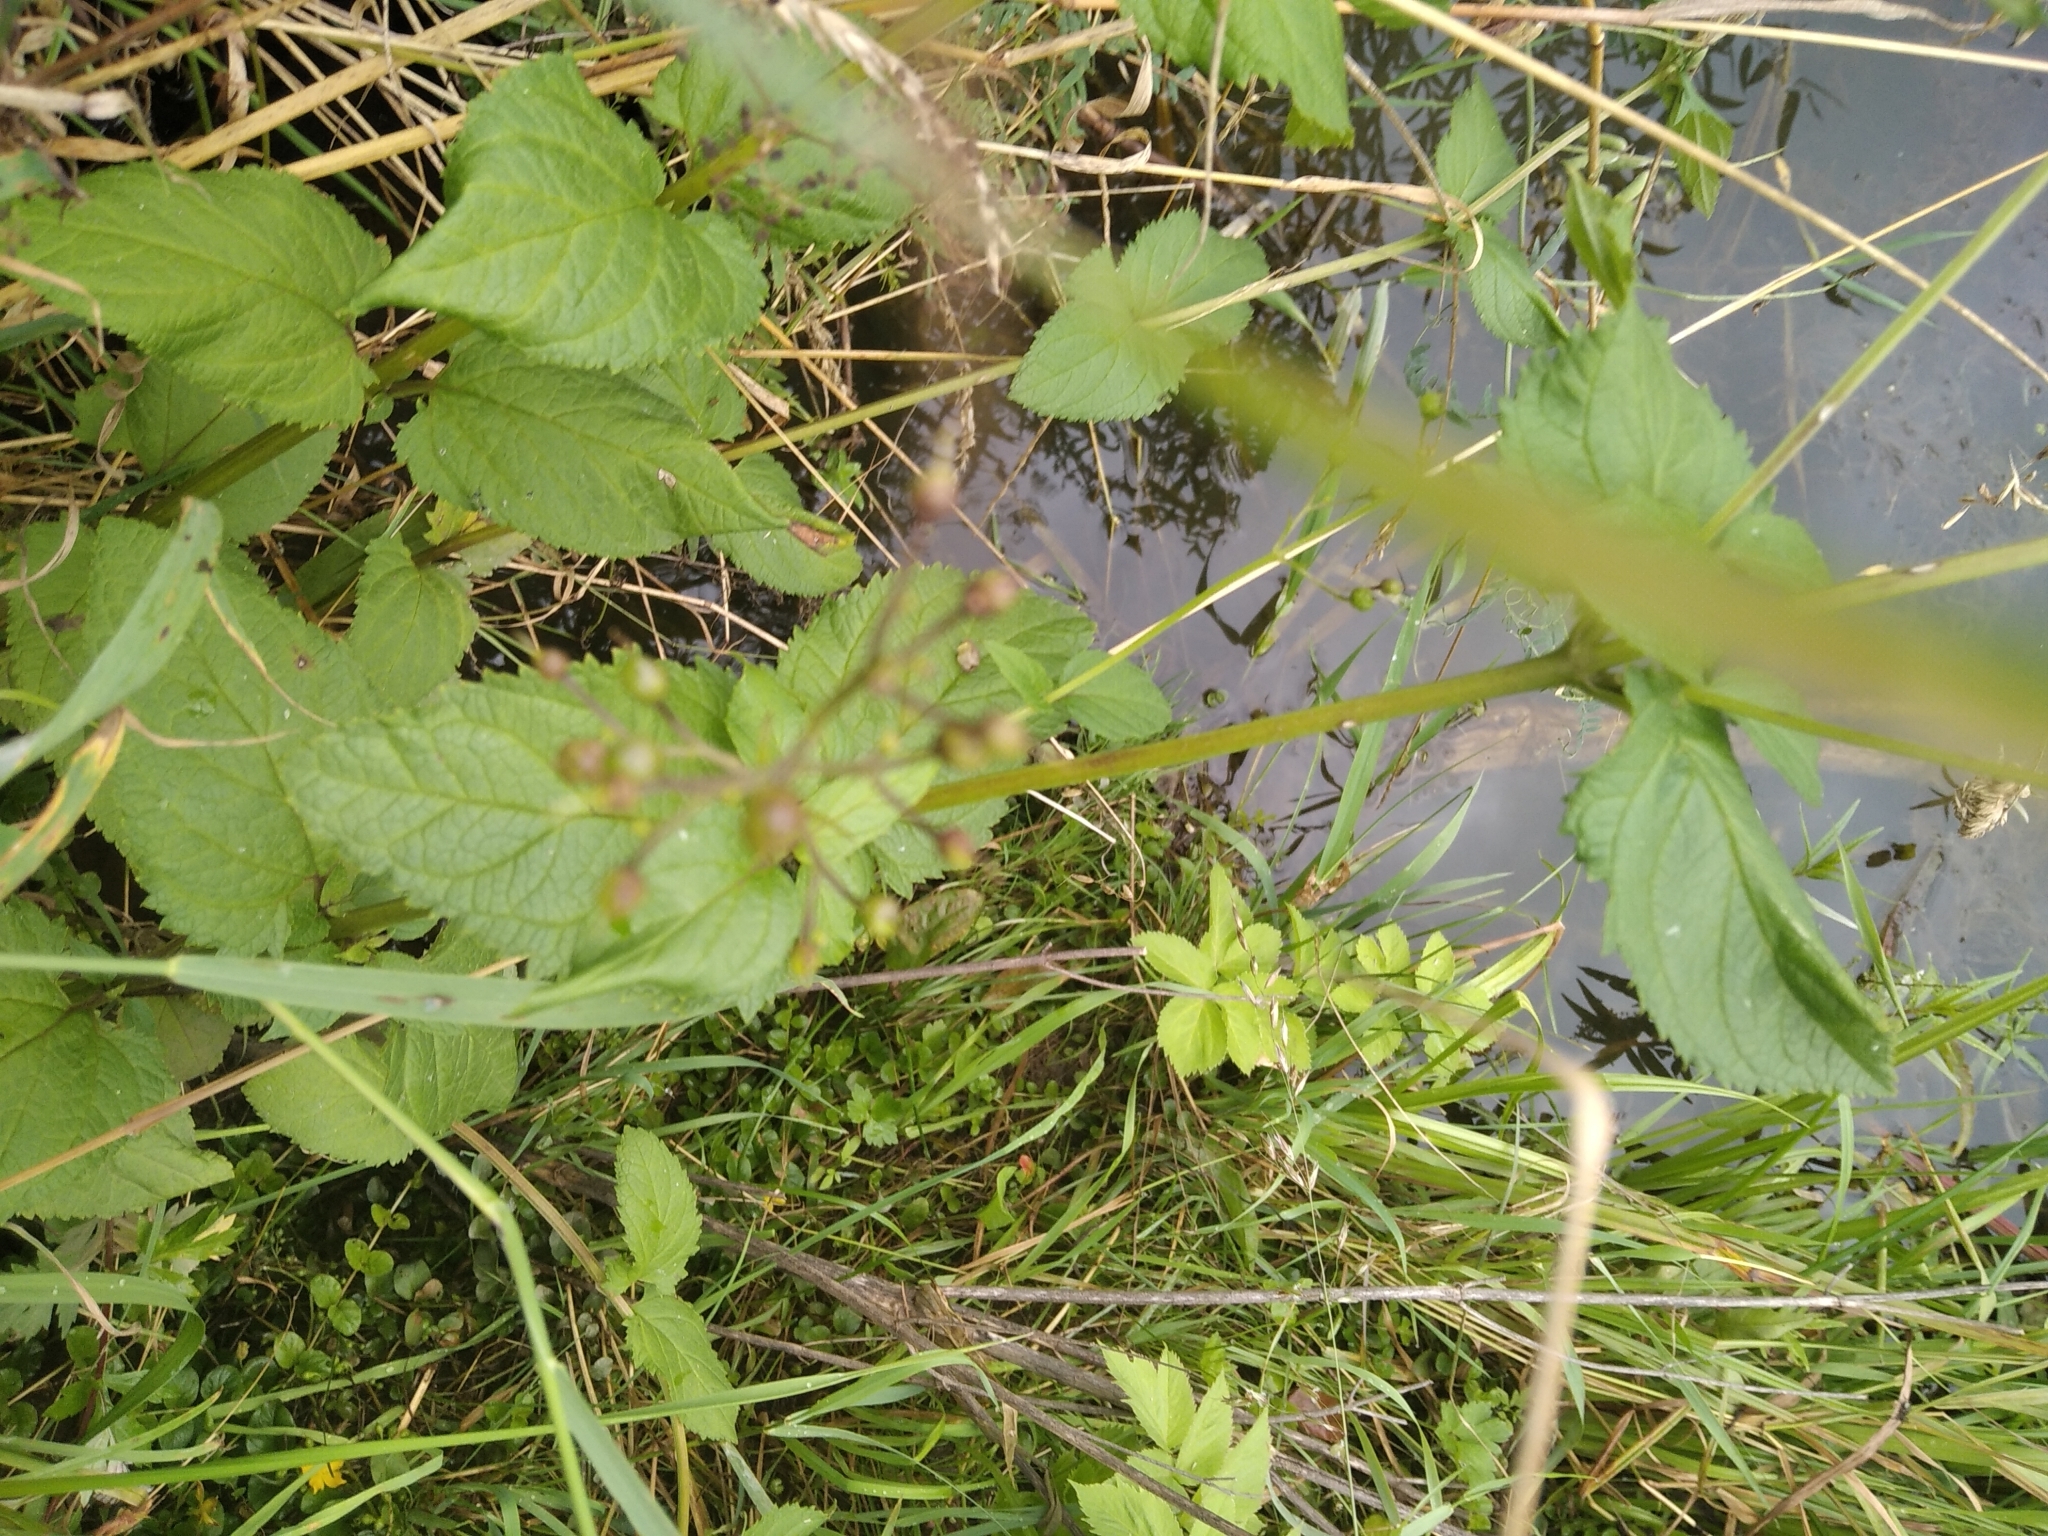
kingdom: Plantae
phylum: Tracheophyta
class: Magnoliopsida
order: Lamiales
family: Scrophulariaceae
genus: Scrophularia
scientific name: Scrophularia umbrosa
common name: Green figwort
